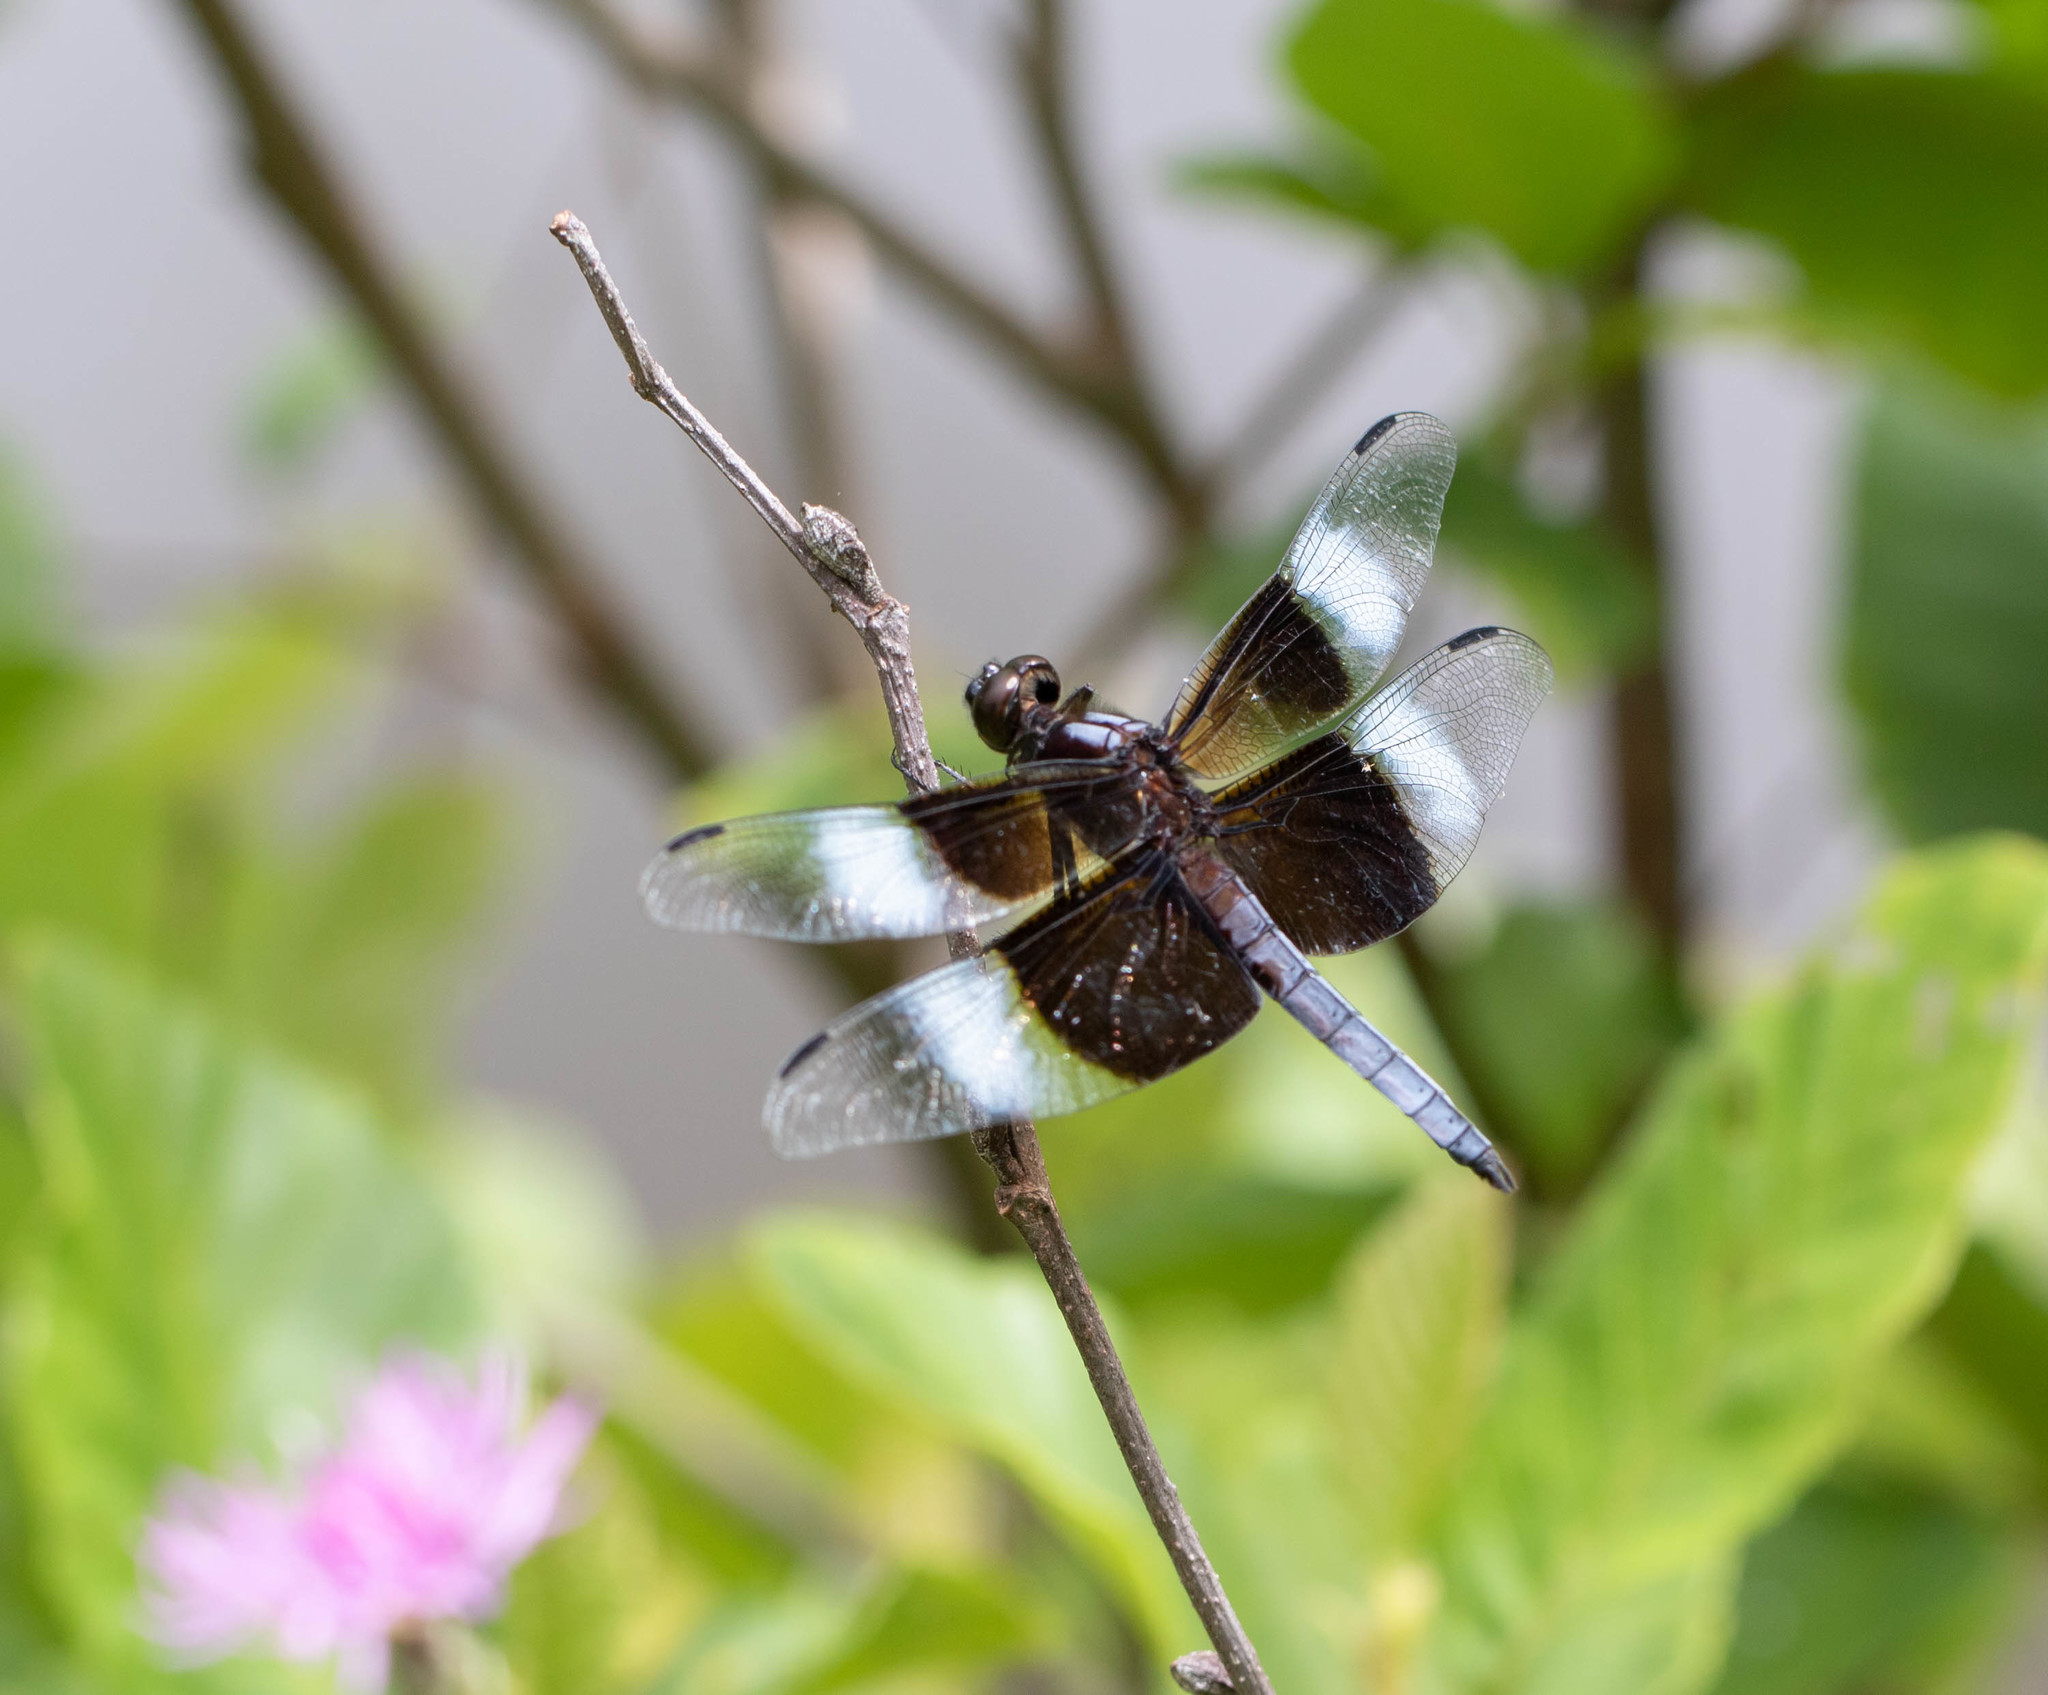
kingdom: Animalia
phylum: Arthropoda
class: Insecta
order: Odonata
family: Libellulidae
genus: Libellula
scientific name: Libellula luctuosa
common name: Widow skimmer
